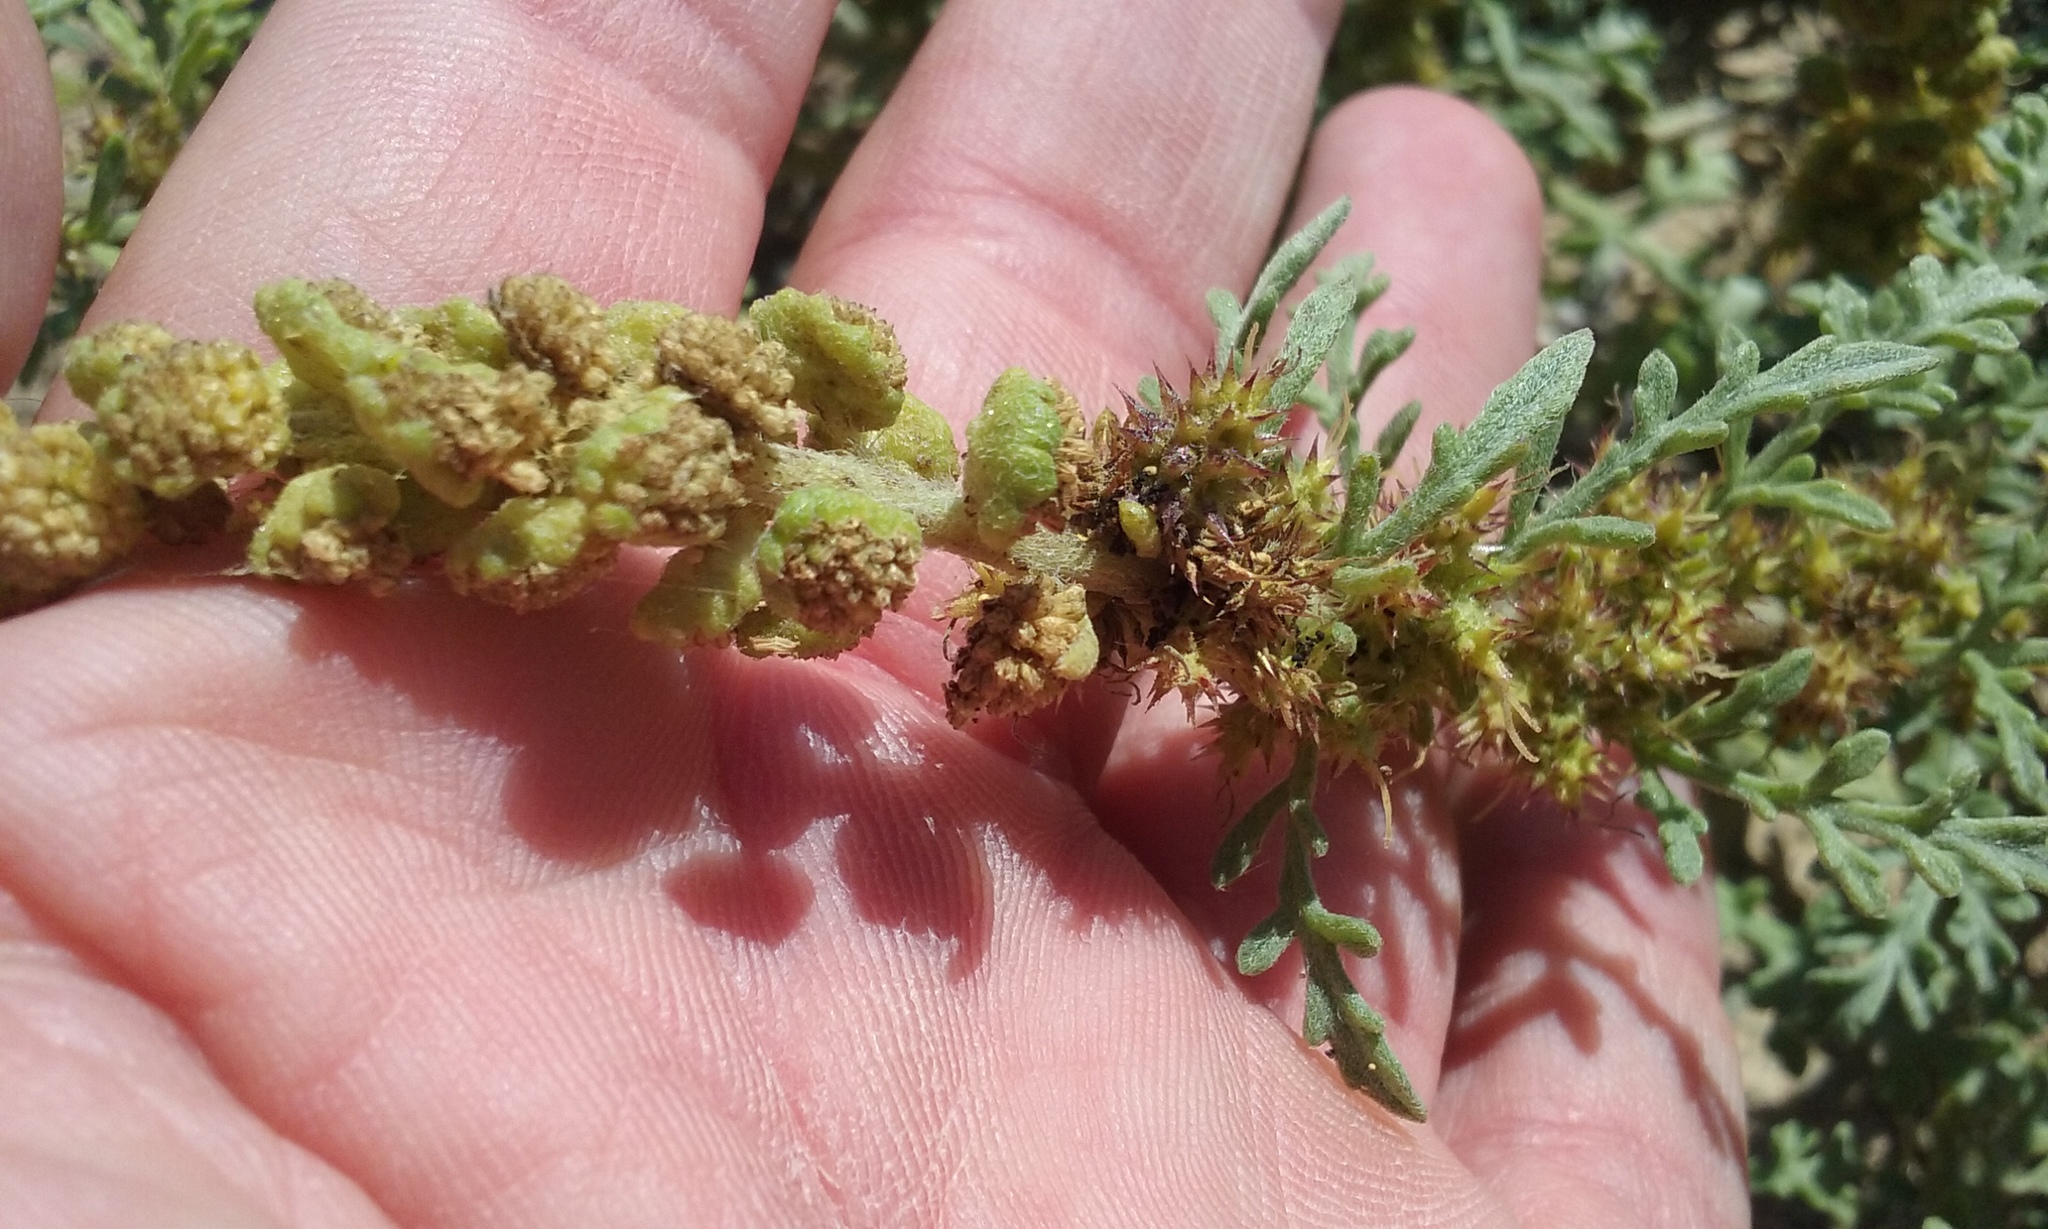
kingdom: Plantae
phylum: Tracheophyta
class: Magnoliopsida
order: Asterales
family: Asteraceae
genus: Ambrosia
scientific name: Ambrosia chamissonis
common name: Beachbur
